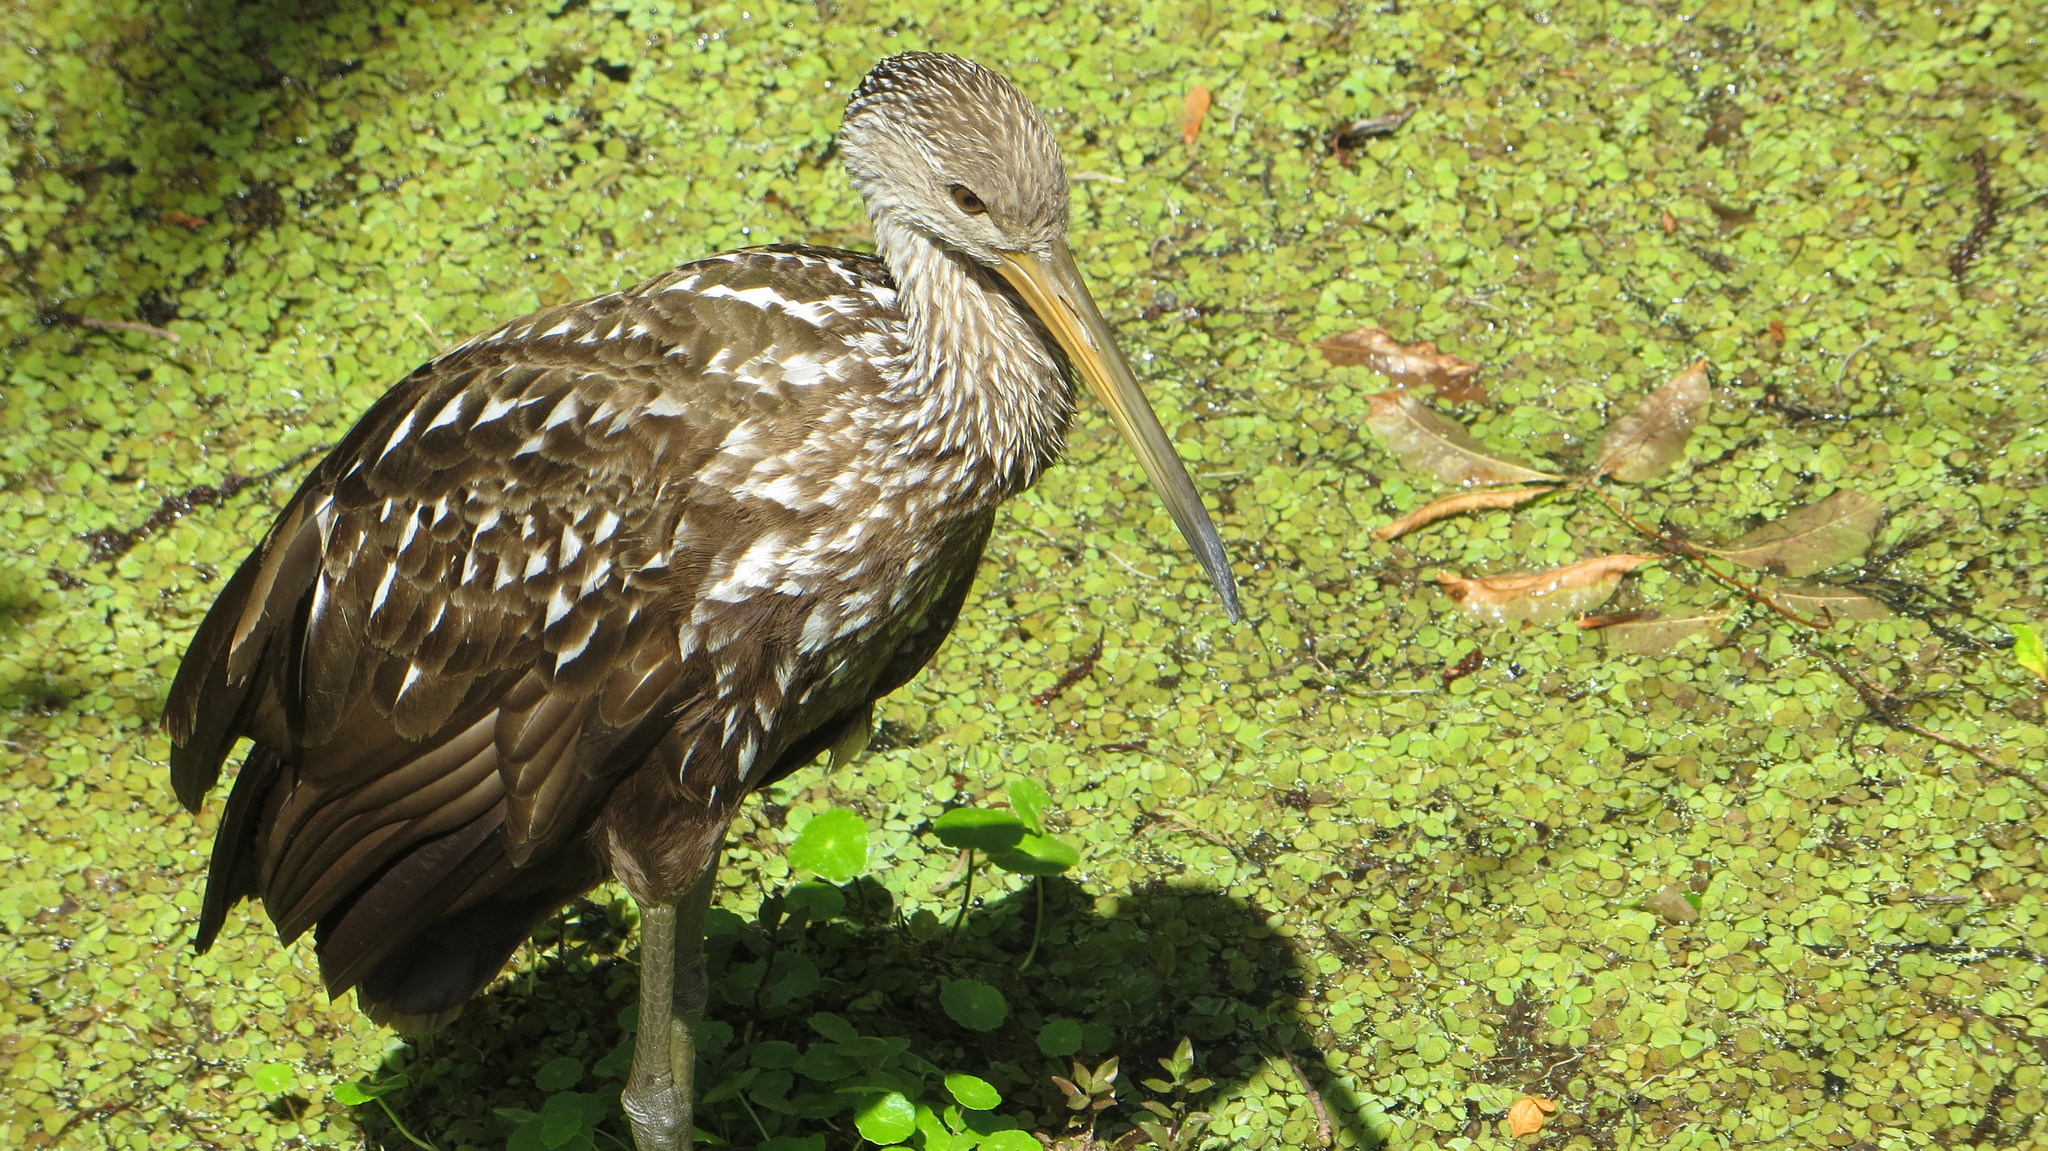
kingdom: Animalia
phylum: Chordata
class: Aves
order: Gruiformes
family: Aramidae
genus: Aramus
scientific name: Aramus guarauna
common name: Limpkin
